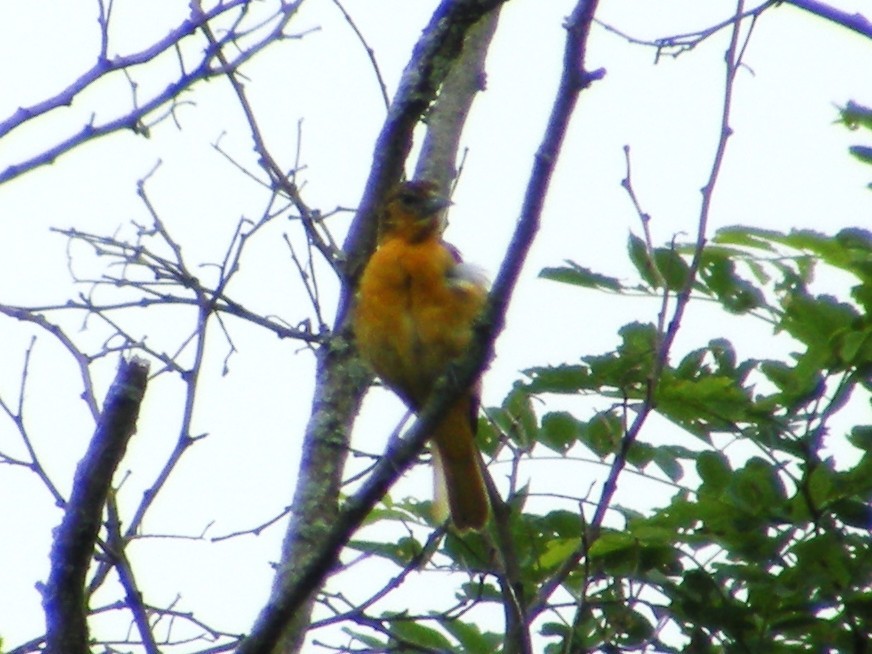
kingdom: Animalia
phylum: Chordata
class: Aves
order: Passeriformes
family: Icteridae
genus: Icterus
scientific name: Icterus galbula
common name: Baltimore oriole
